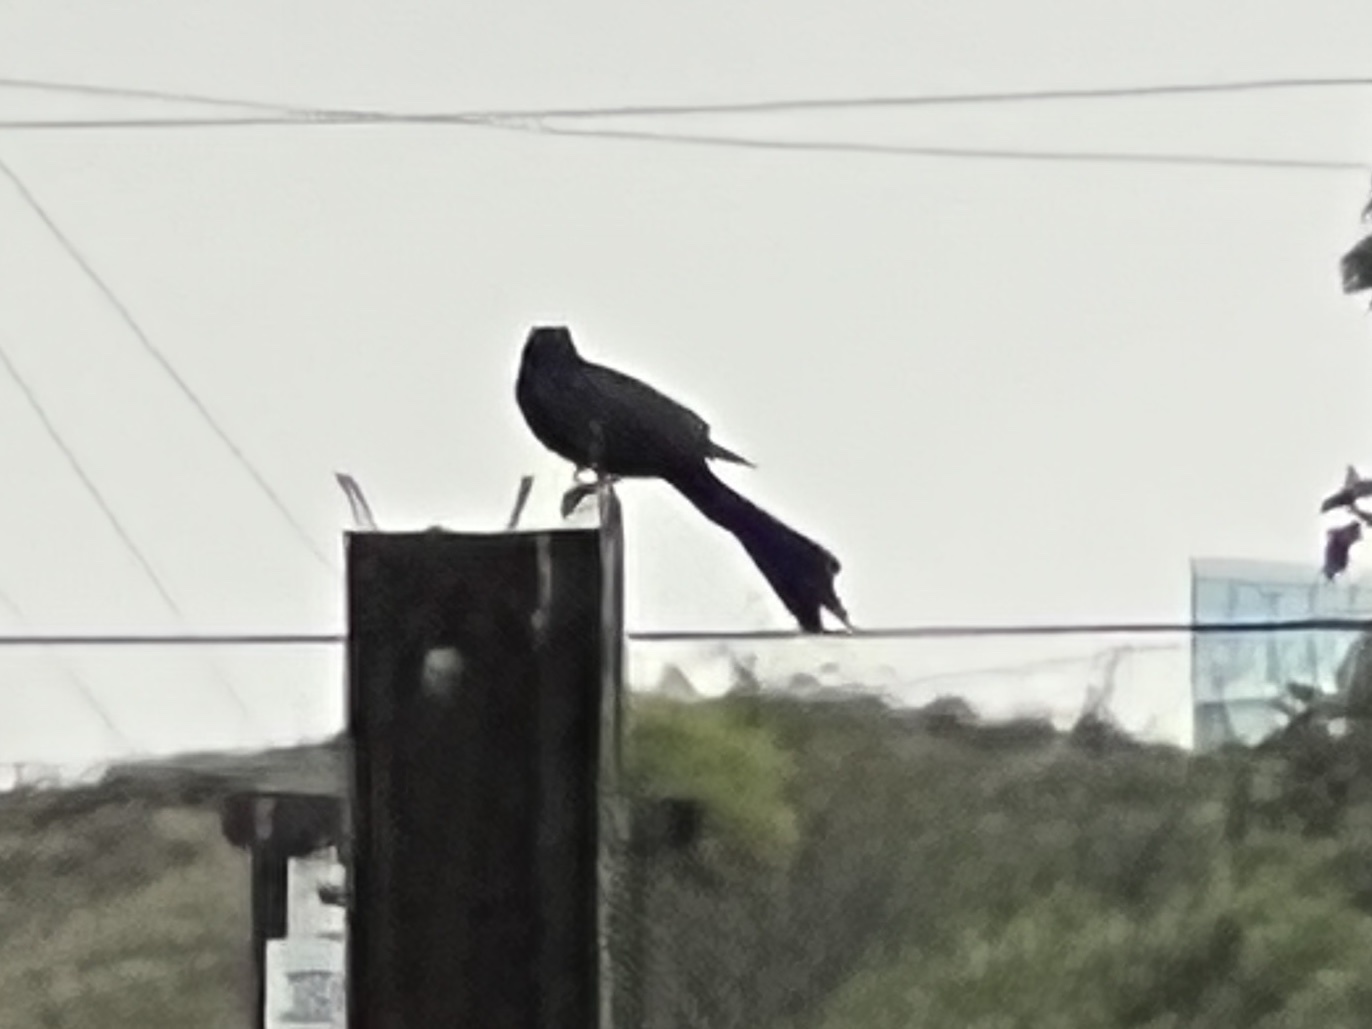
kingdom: Animalia
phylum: Chordata
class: Aves
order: Passeriformes
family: Icteridae
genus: Quiscalus
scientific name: Quiscalus mexicanus
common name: Great-tailed grackle
